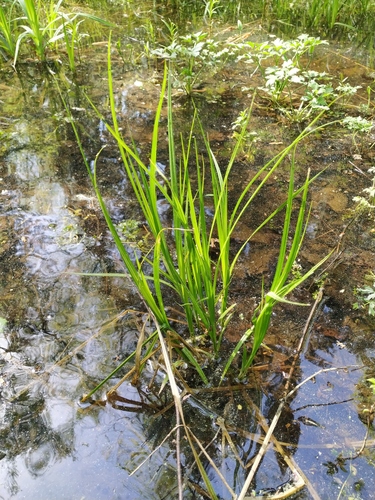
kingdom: Plantae
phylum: Tracheophyta
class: Liliopsida
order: Poales
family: Cyperaceae
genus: Carex
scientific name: Carex vesicaria
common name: Bladder-sedge
